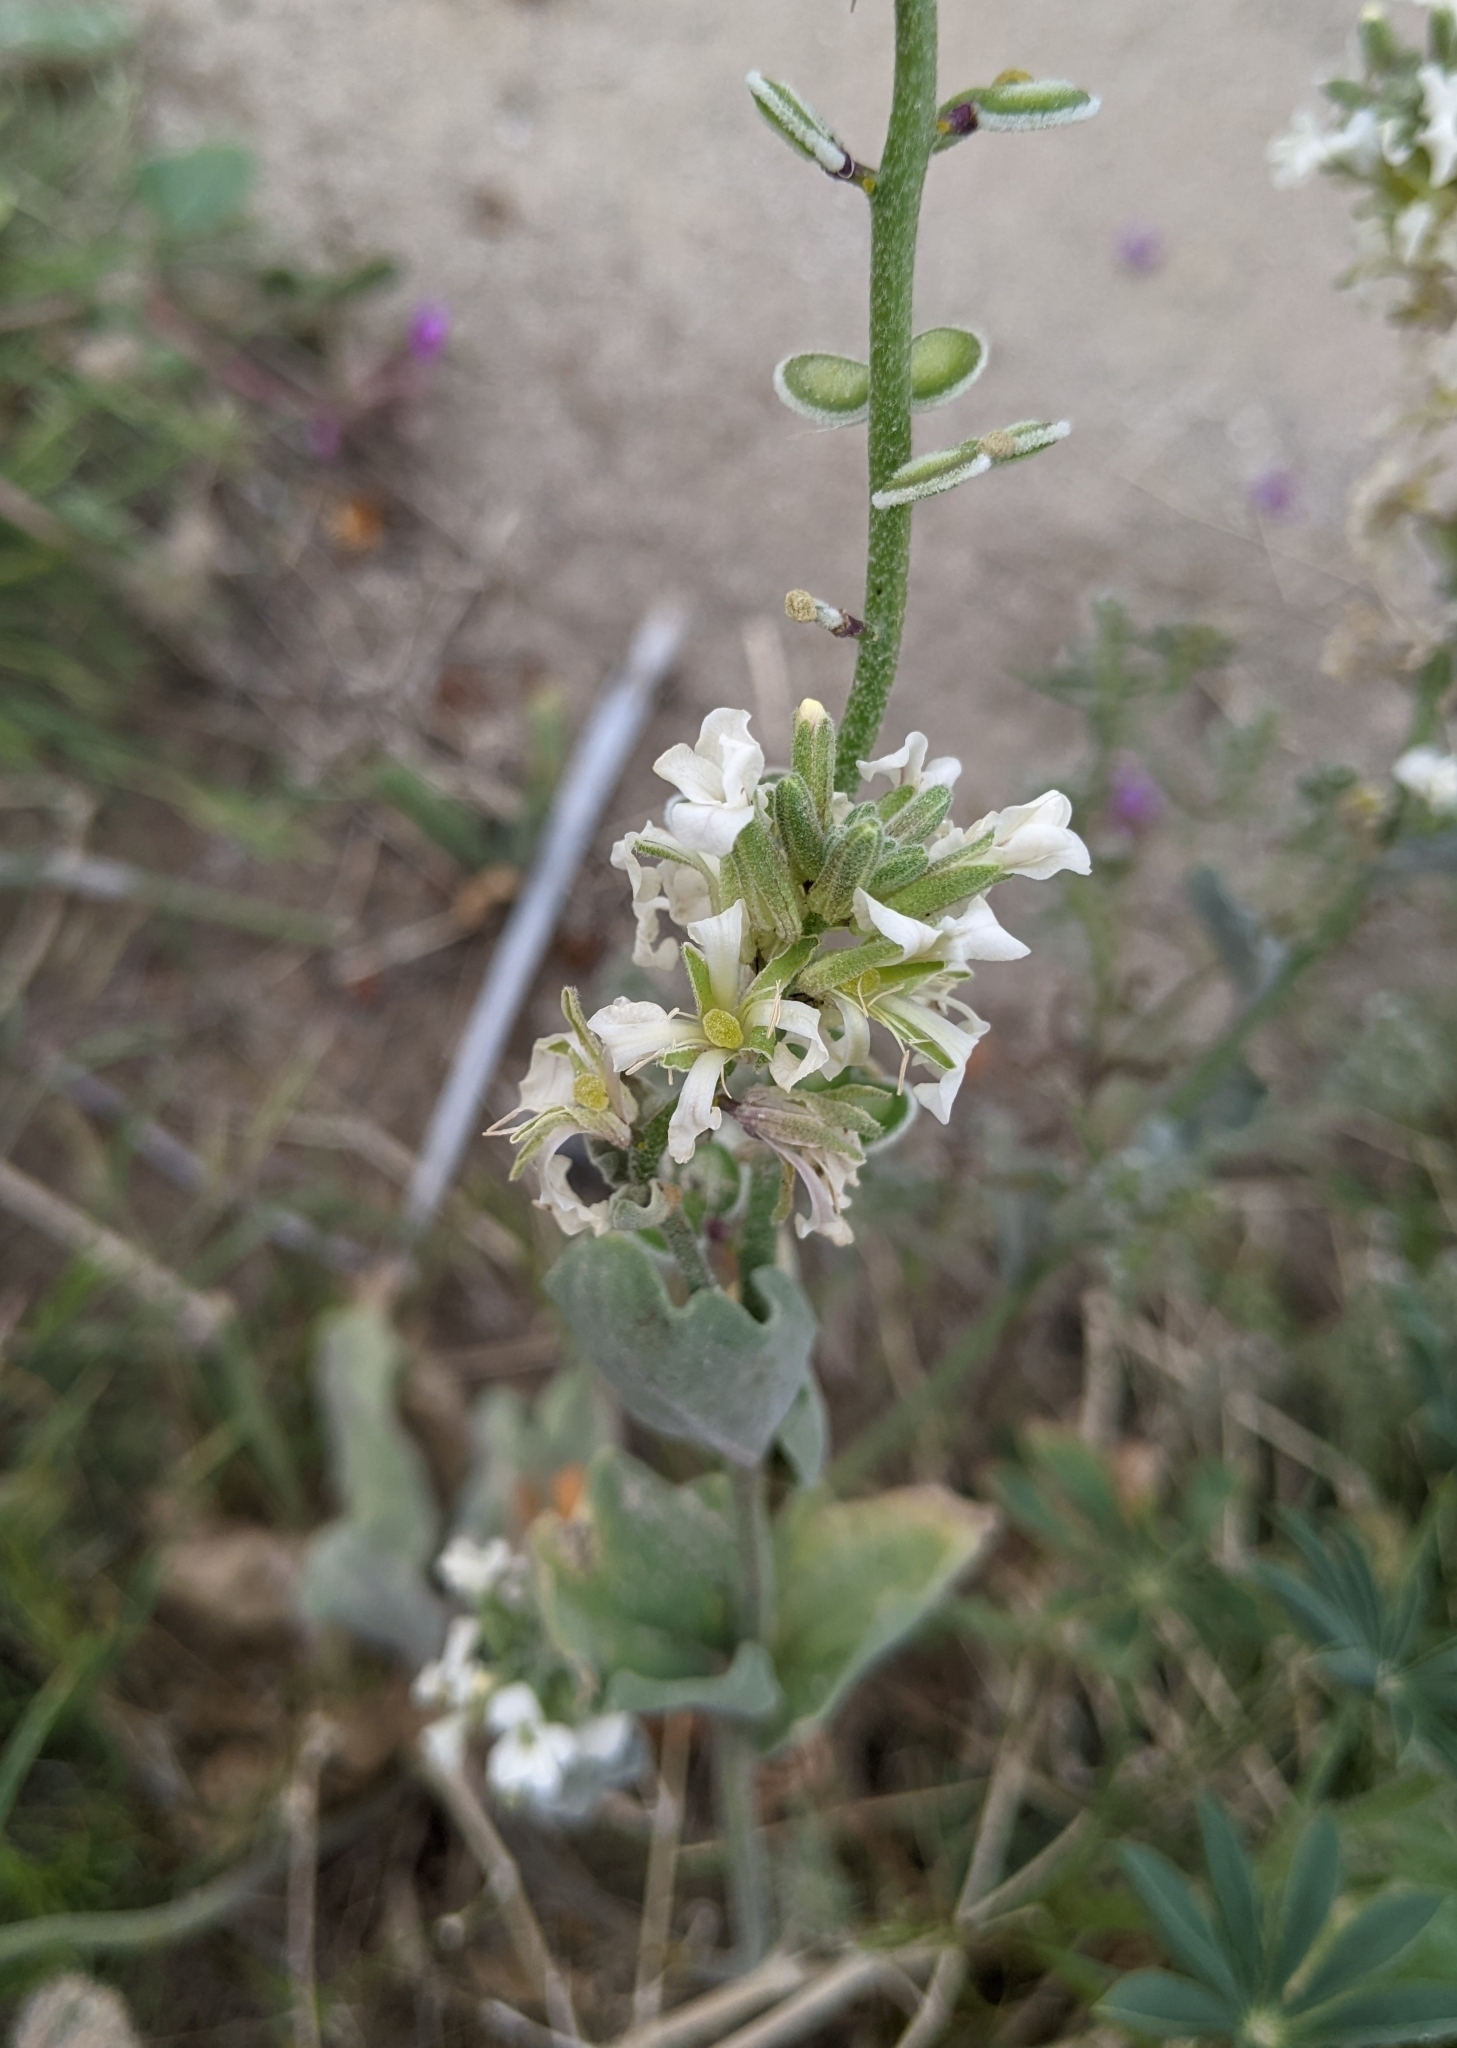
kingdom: Plantae
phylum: Tracheophyta
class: Magnoliopsida
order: Brassicales
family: Brassicaceae
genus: Dithyrea
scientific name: Dithyrea californica
